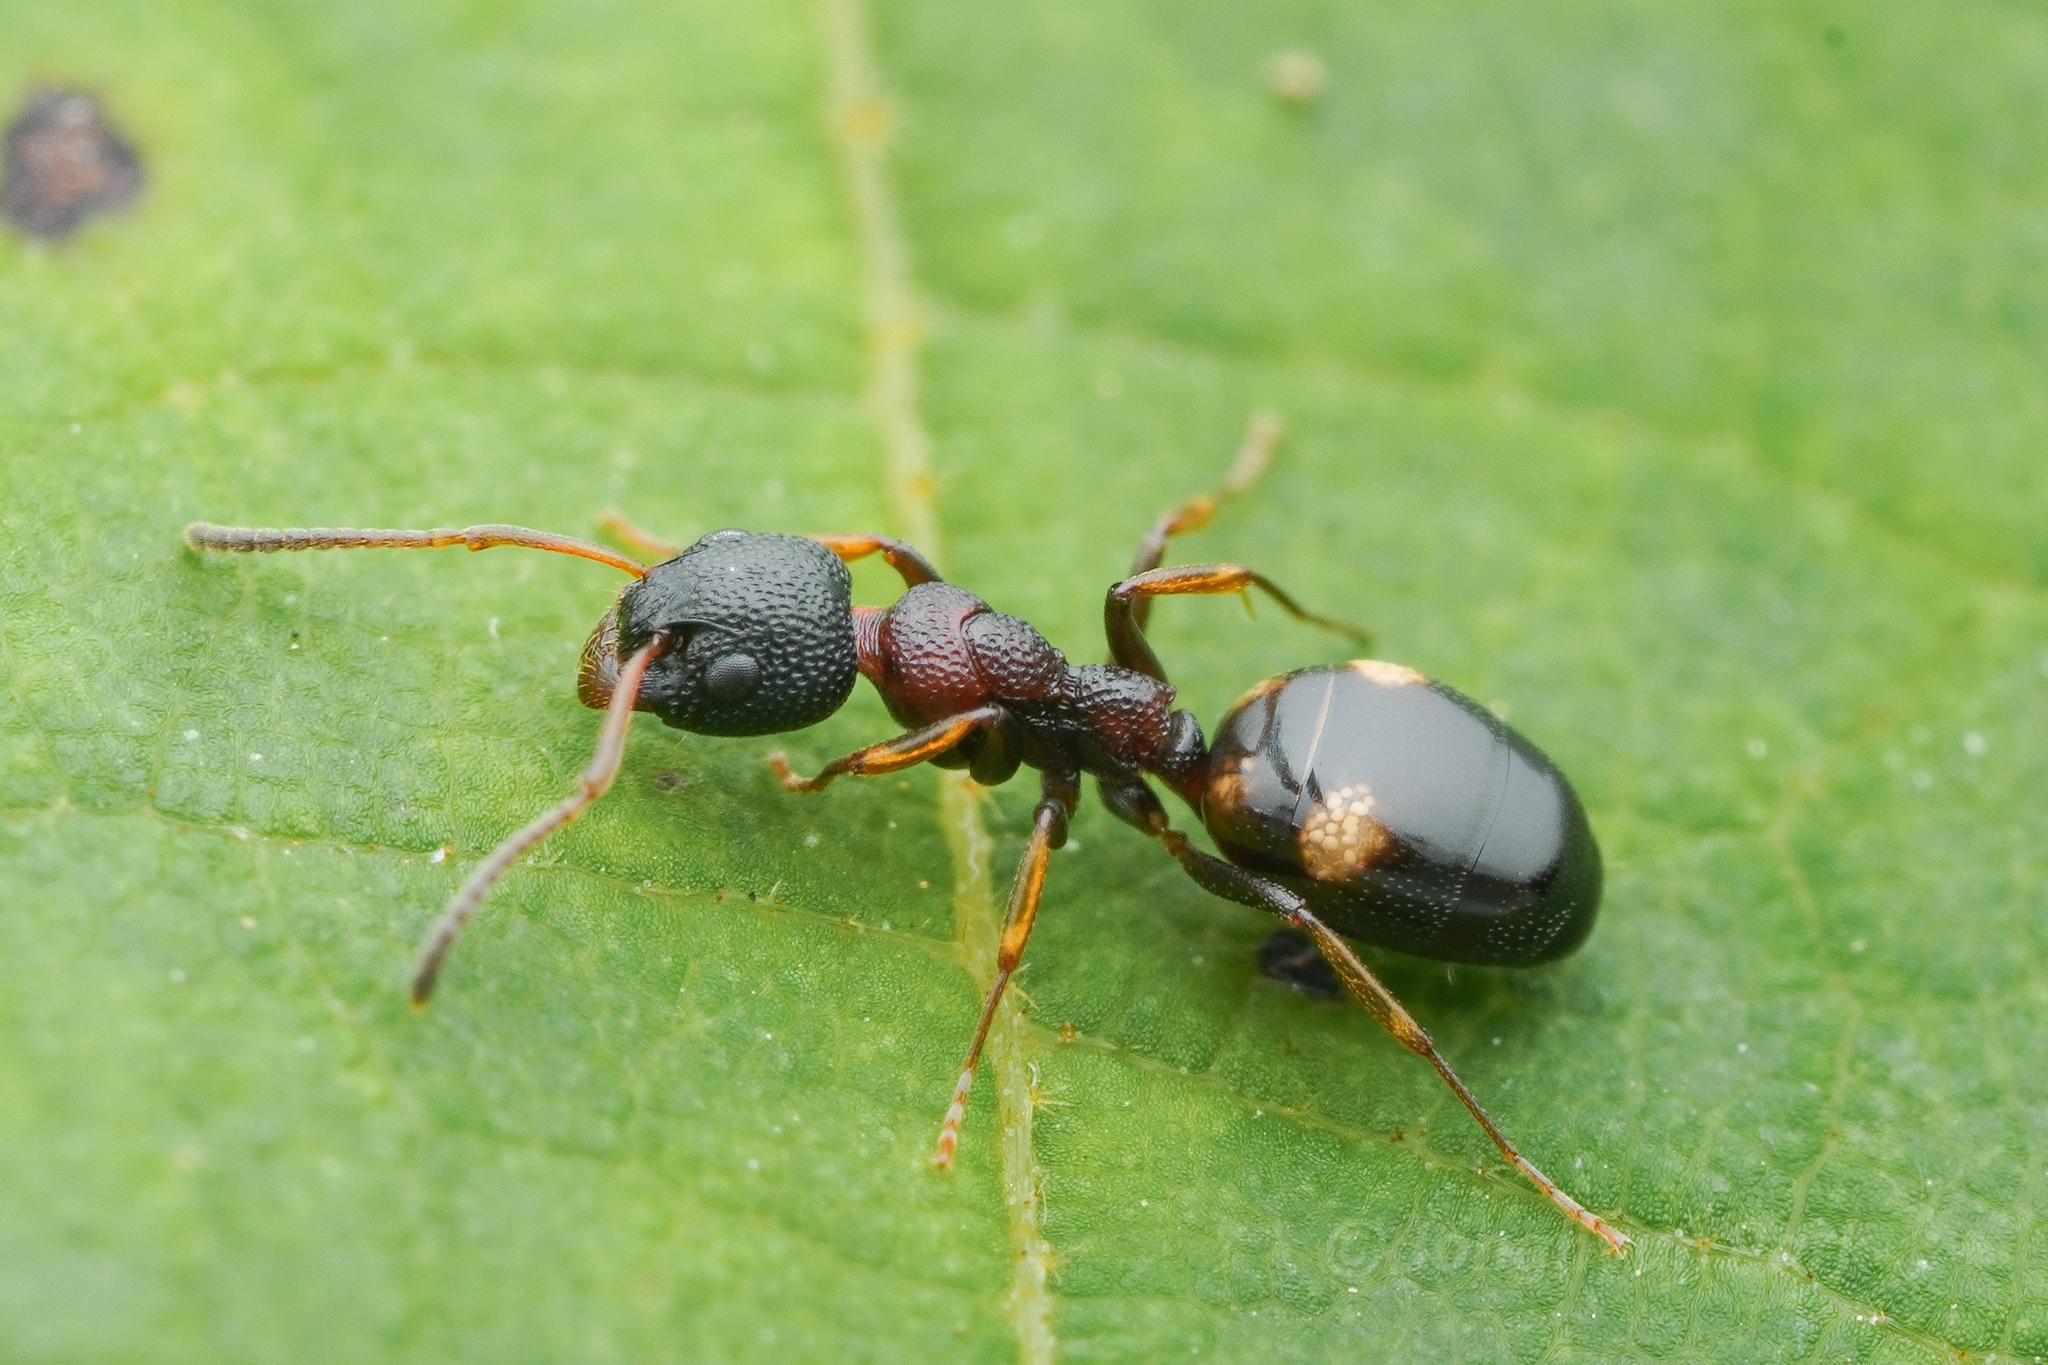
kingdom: Animalia
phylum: Arthropoda
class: Insecta
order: Hymenoptera
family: Formicidae
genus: Dolichoderus
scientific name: Dolichoderus sibiricus
